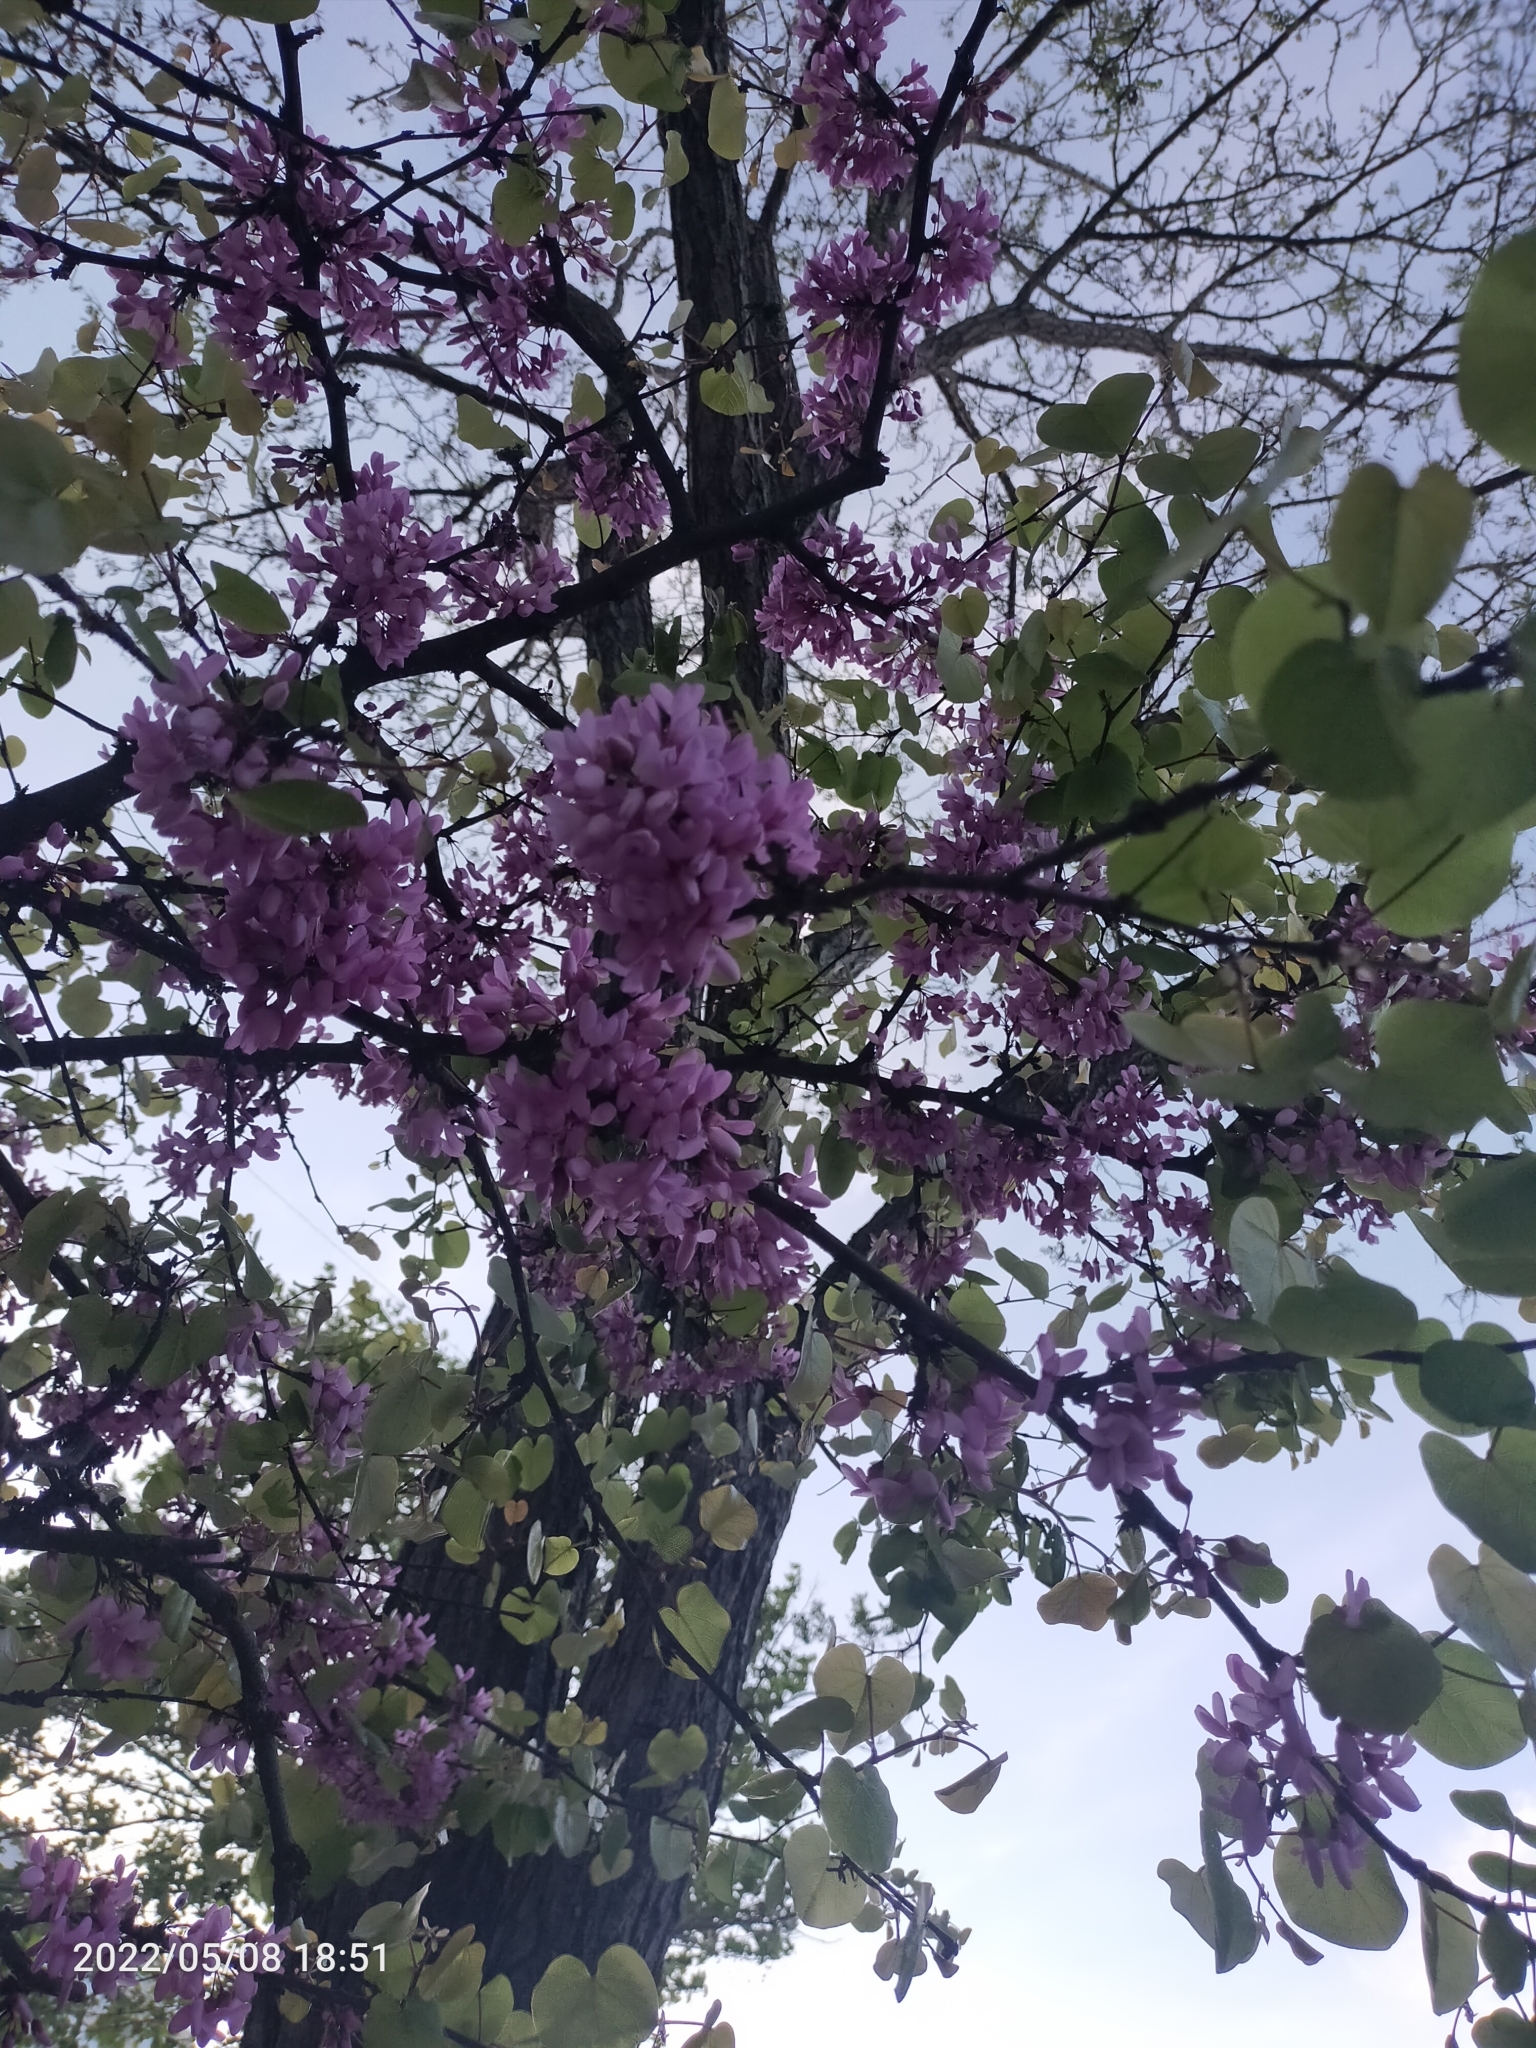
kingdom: Plantae
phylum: Tracheophyta
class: Magnoliopsida
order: Fabales
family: Fabaceae
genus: Cercis
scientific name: Cercis siliquastrum
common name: Judas tree
